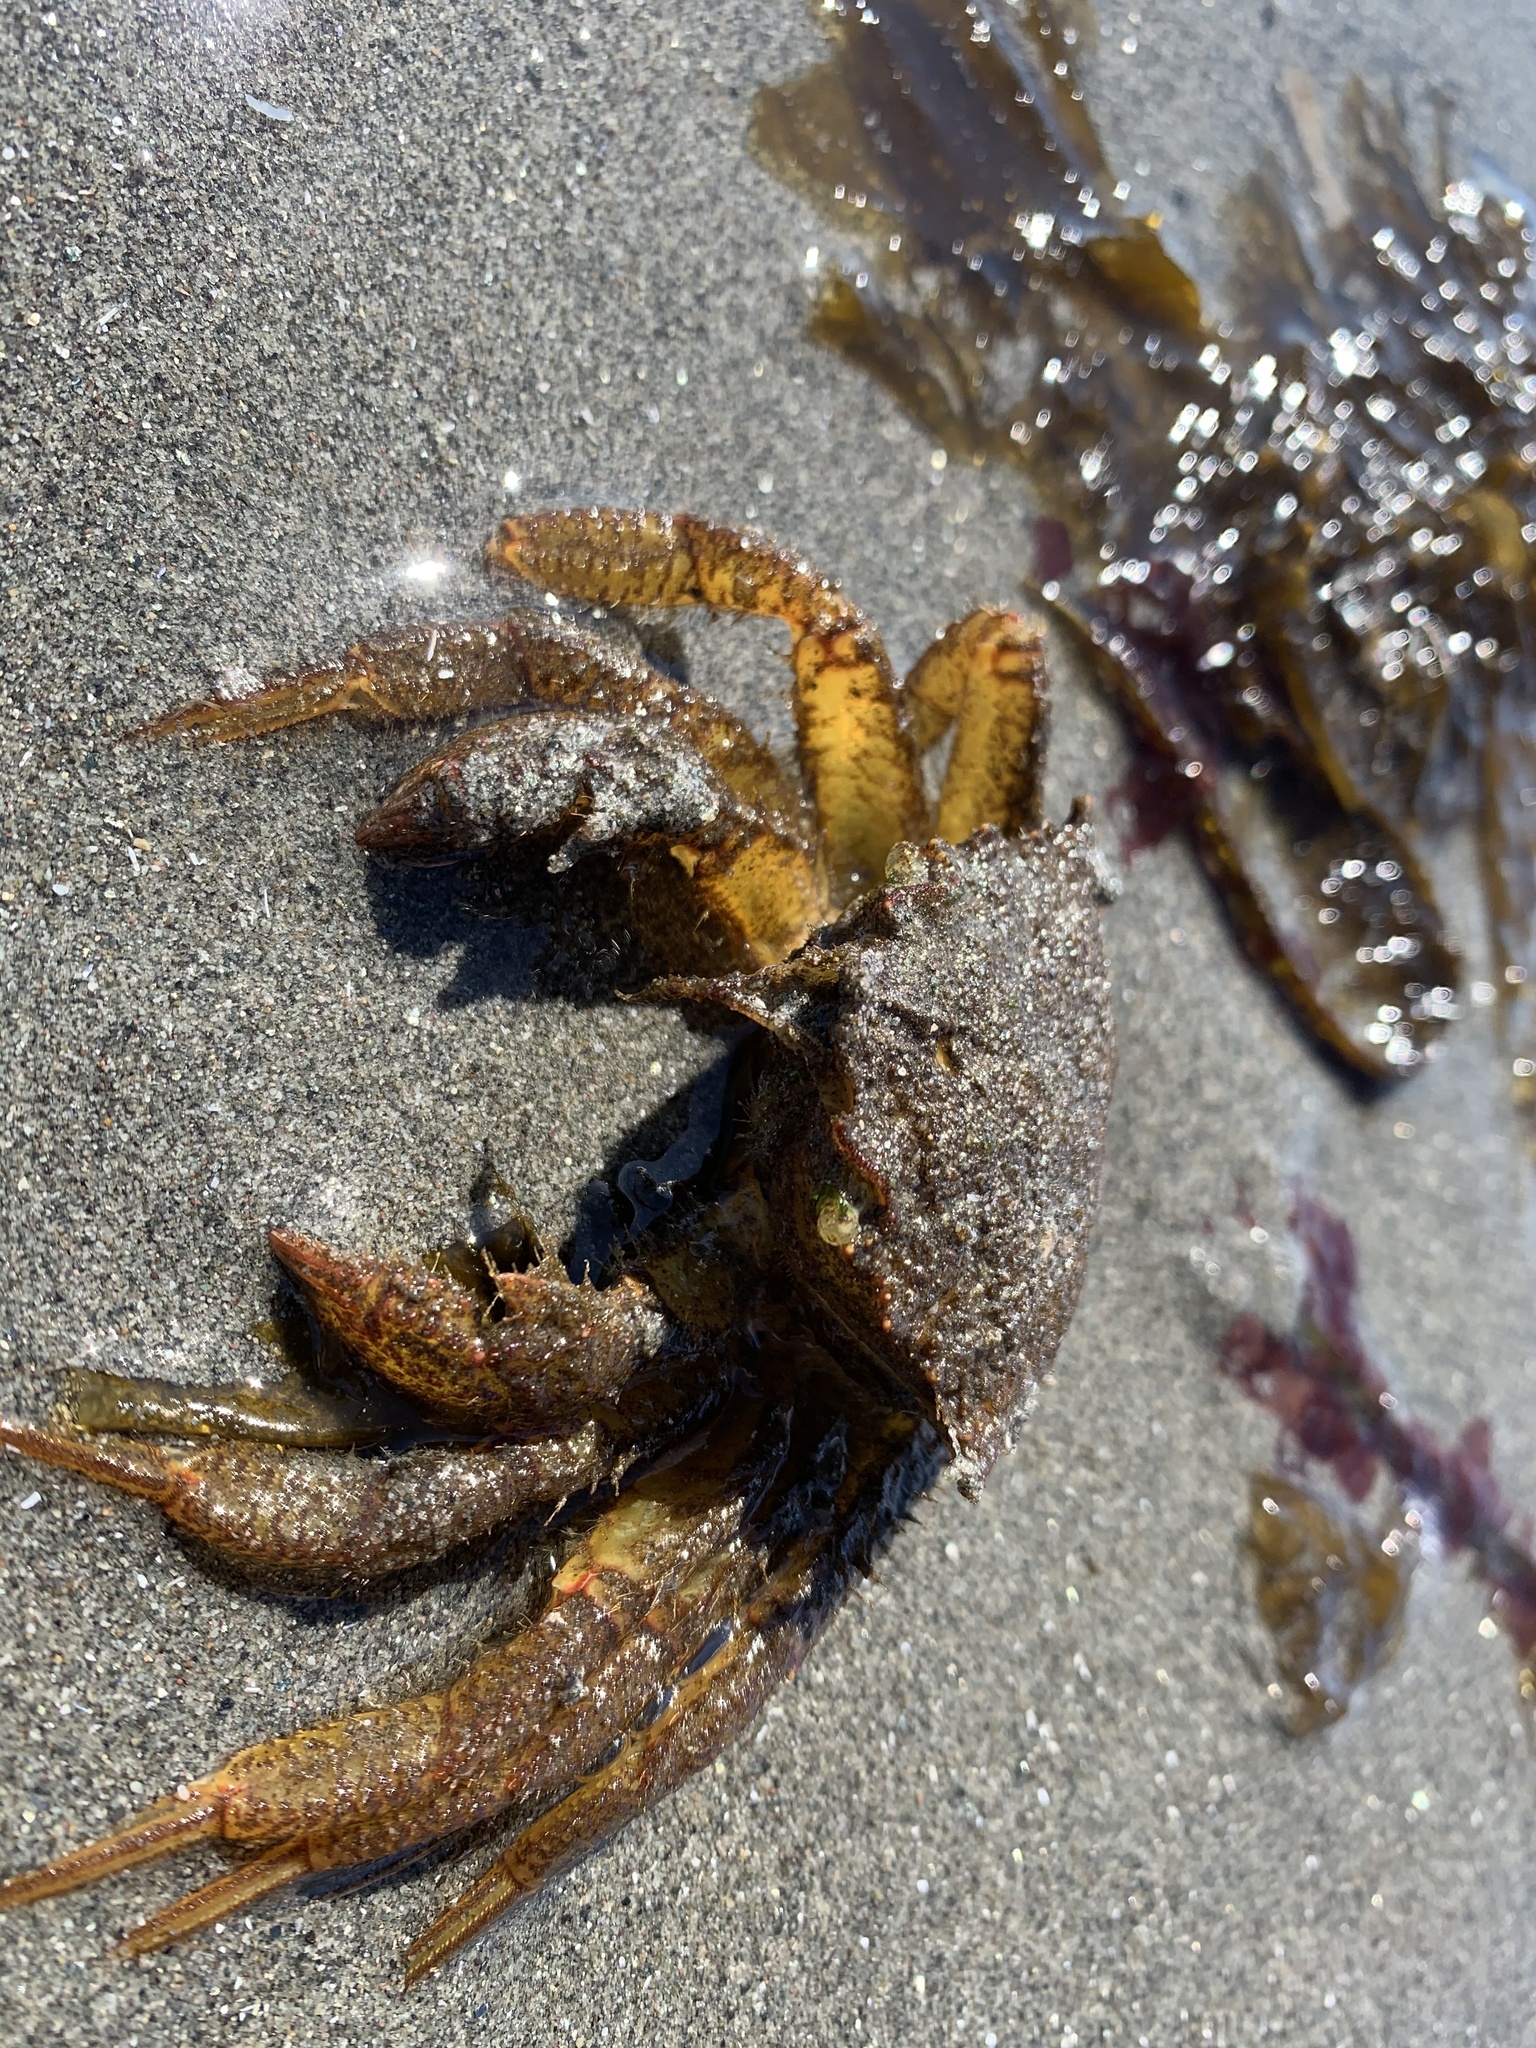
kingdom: Animalia
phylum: Arthropoda
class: Malacostraca
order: Decapoda
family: Cheiragonidae
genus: Telmessus
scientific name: Telmessus cheiragonus
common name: Helmet crab
